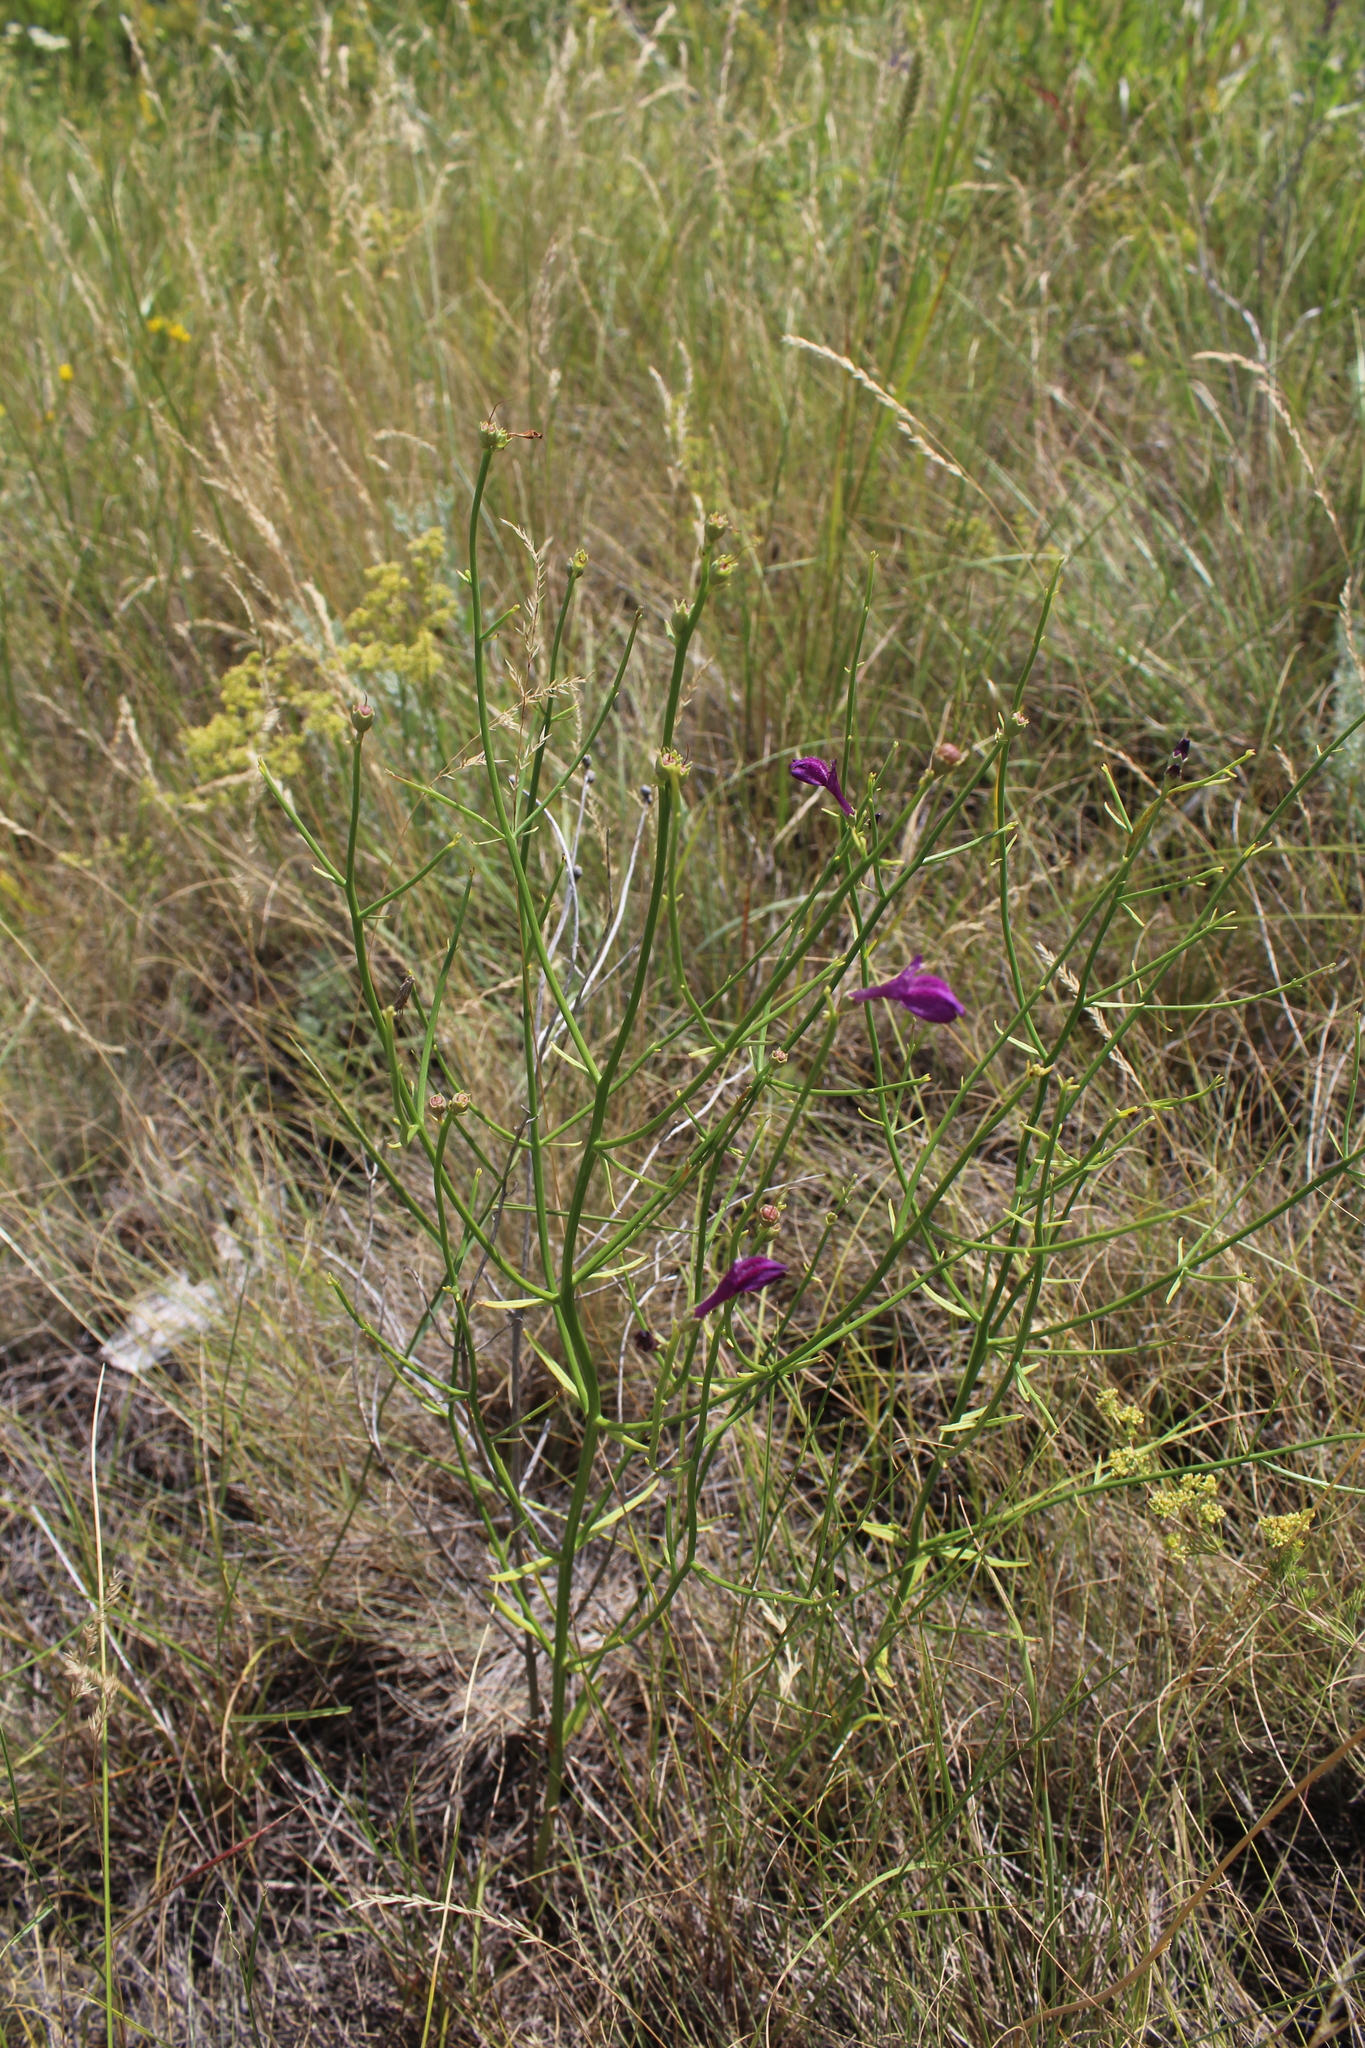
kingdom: Plantae
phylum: Tracheophyta
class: Magnoliopsida
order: Lamiales
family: Mazaceae
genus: Dodartia
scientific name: Dodartia orientalis
